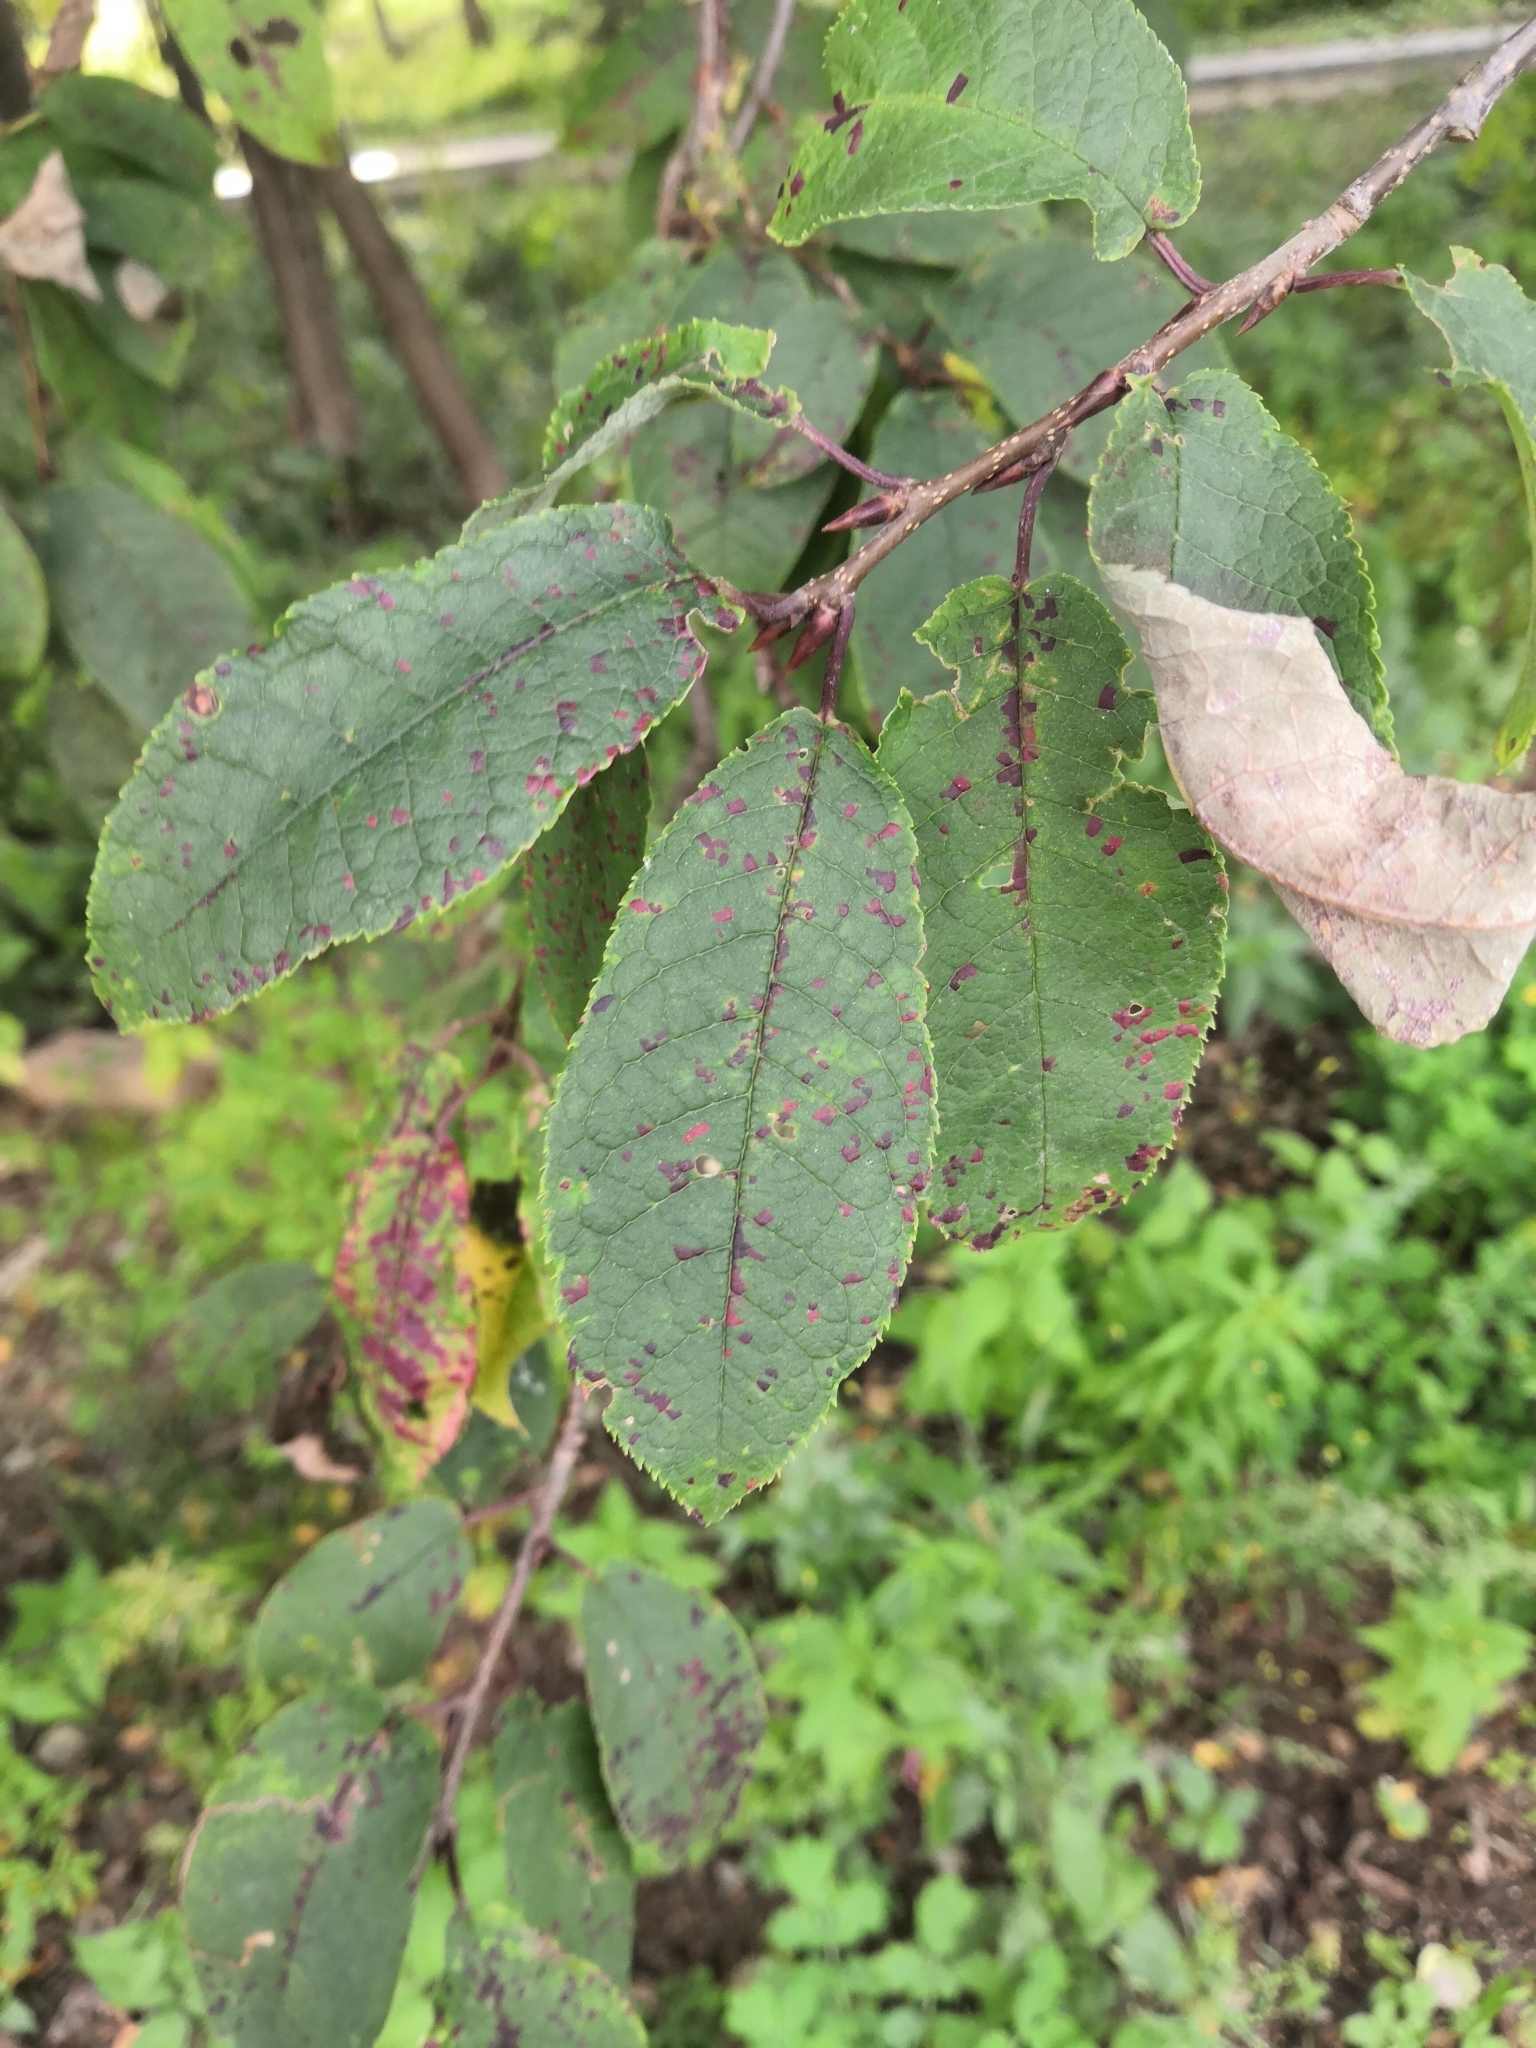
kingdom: Plantae
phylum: Tracheophyta
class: Magnoliopsida
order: Rosales
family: Rosaceae
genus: Prunus
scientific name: Prunus padus
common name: Bird cherry
